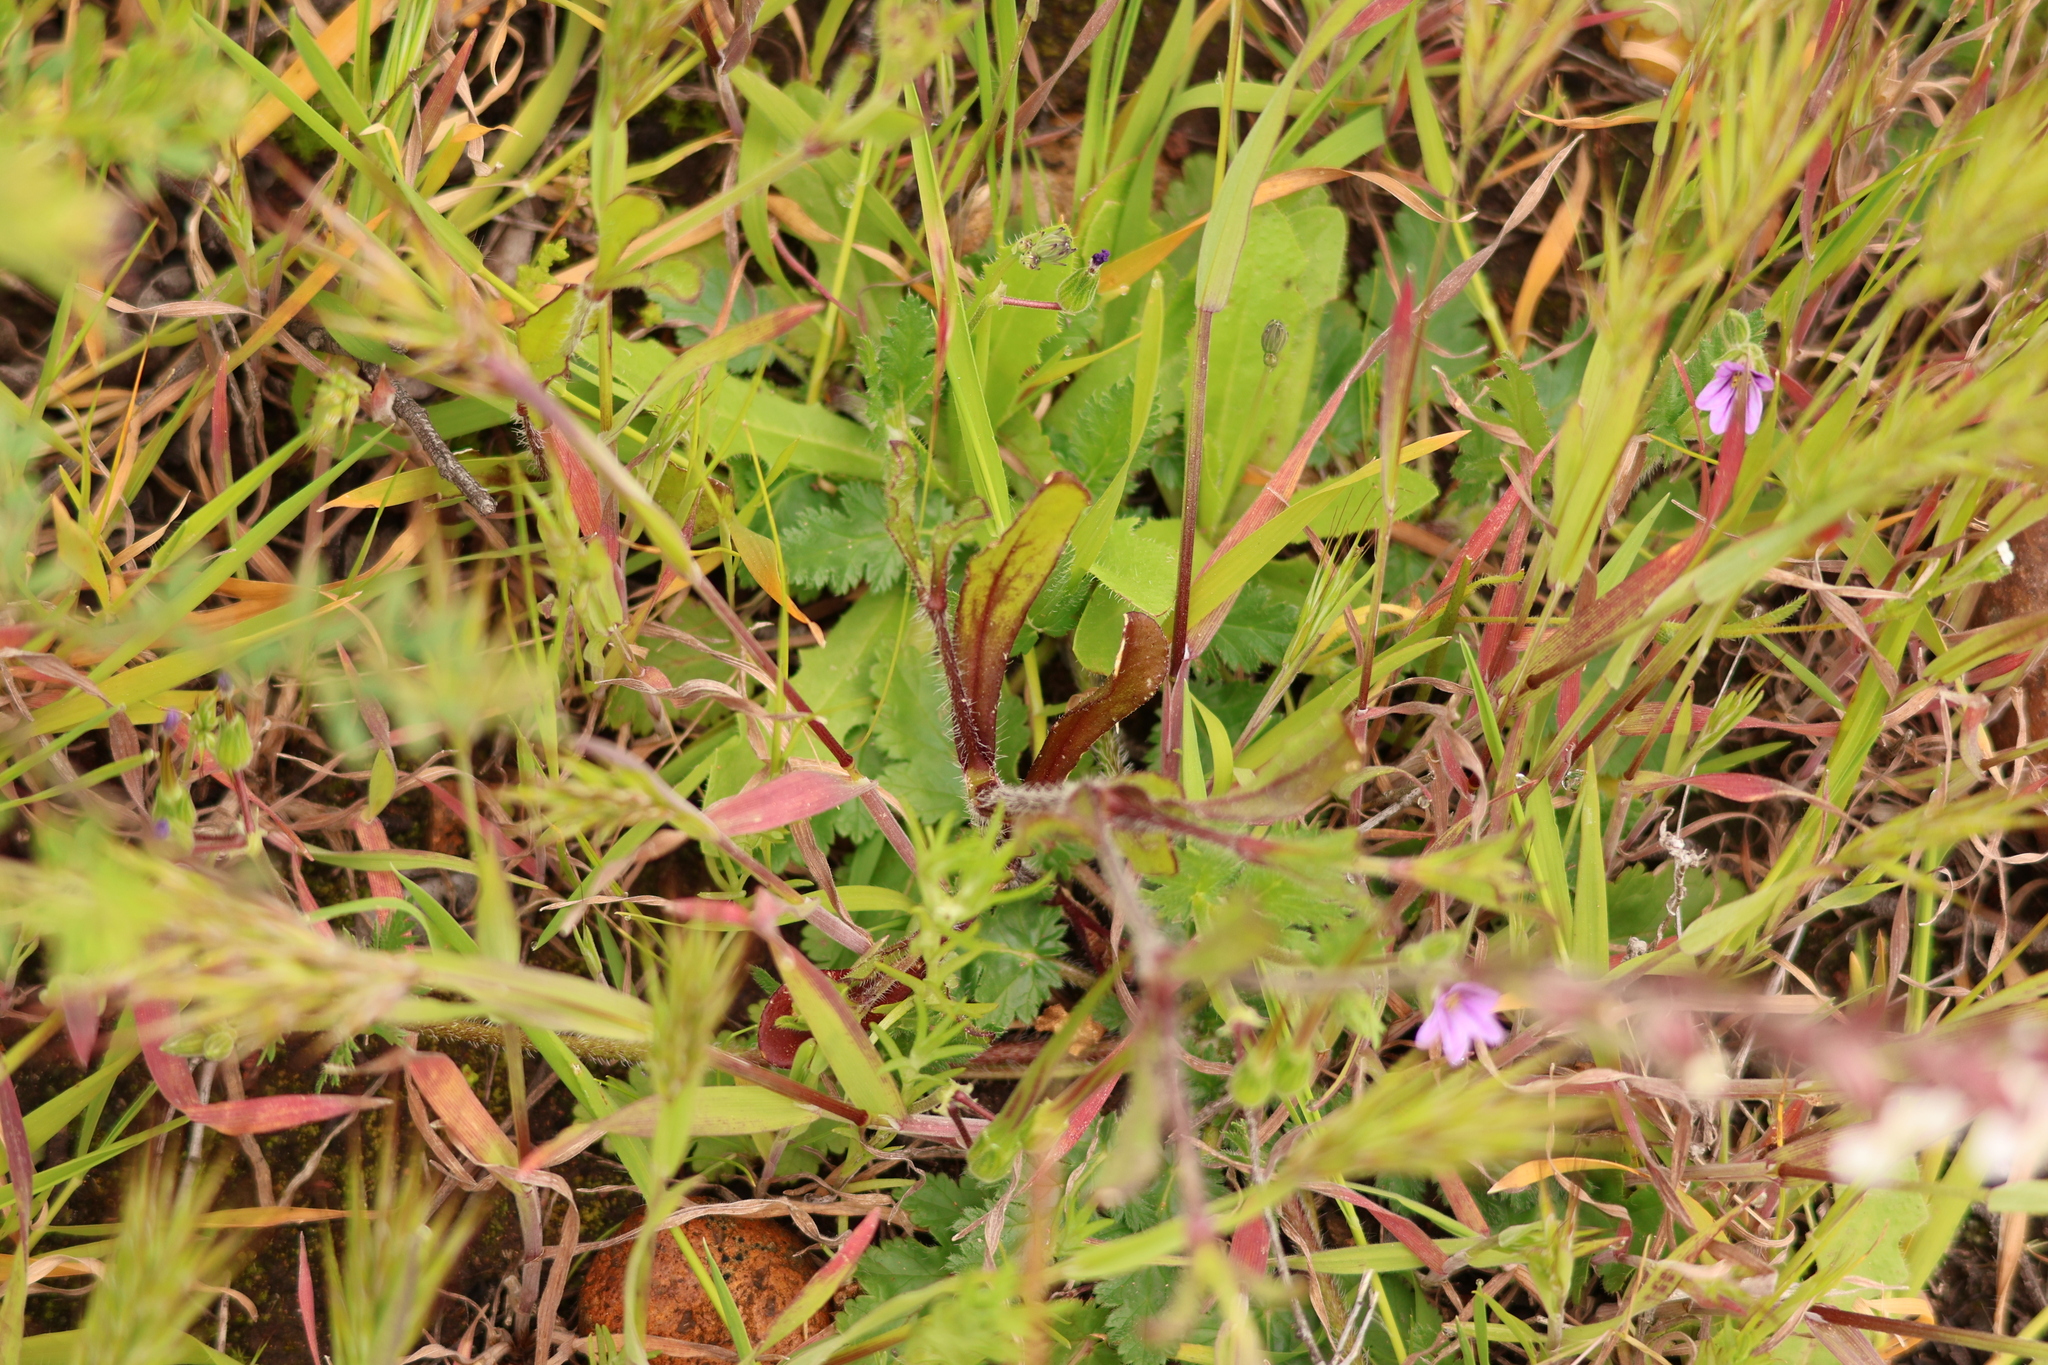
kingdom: Plantae
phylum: Tracheophyta
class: Magnoliopsida
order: Caryophyllales
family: Caryophyllaceae
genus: Silene
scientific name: Silene gallica
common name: Small-flowered catchfly
